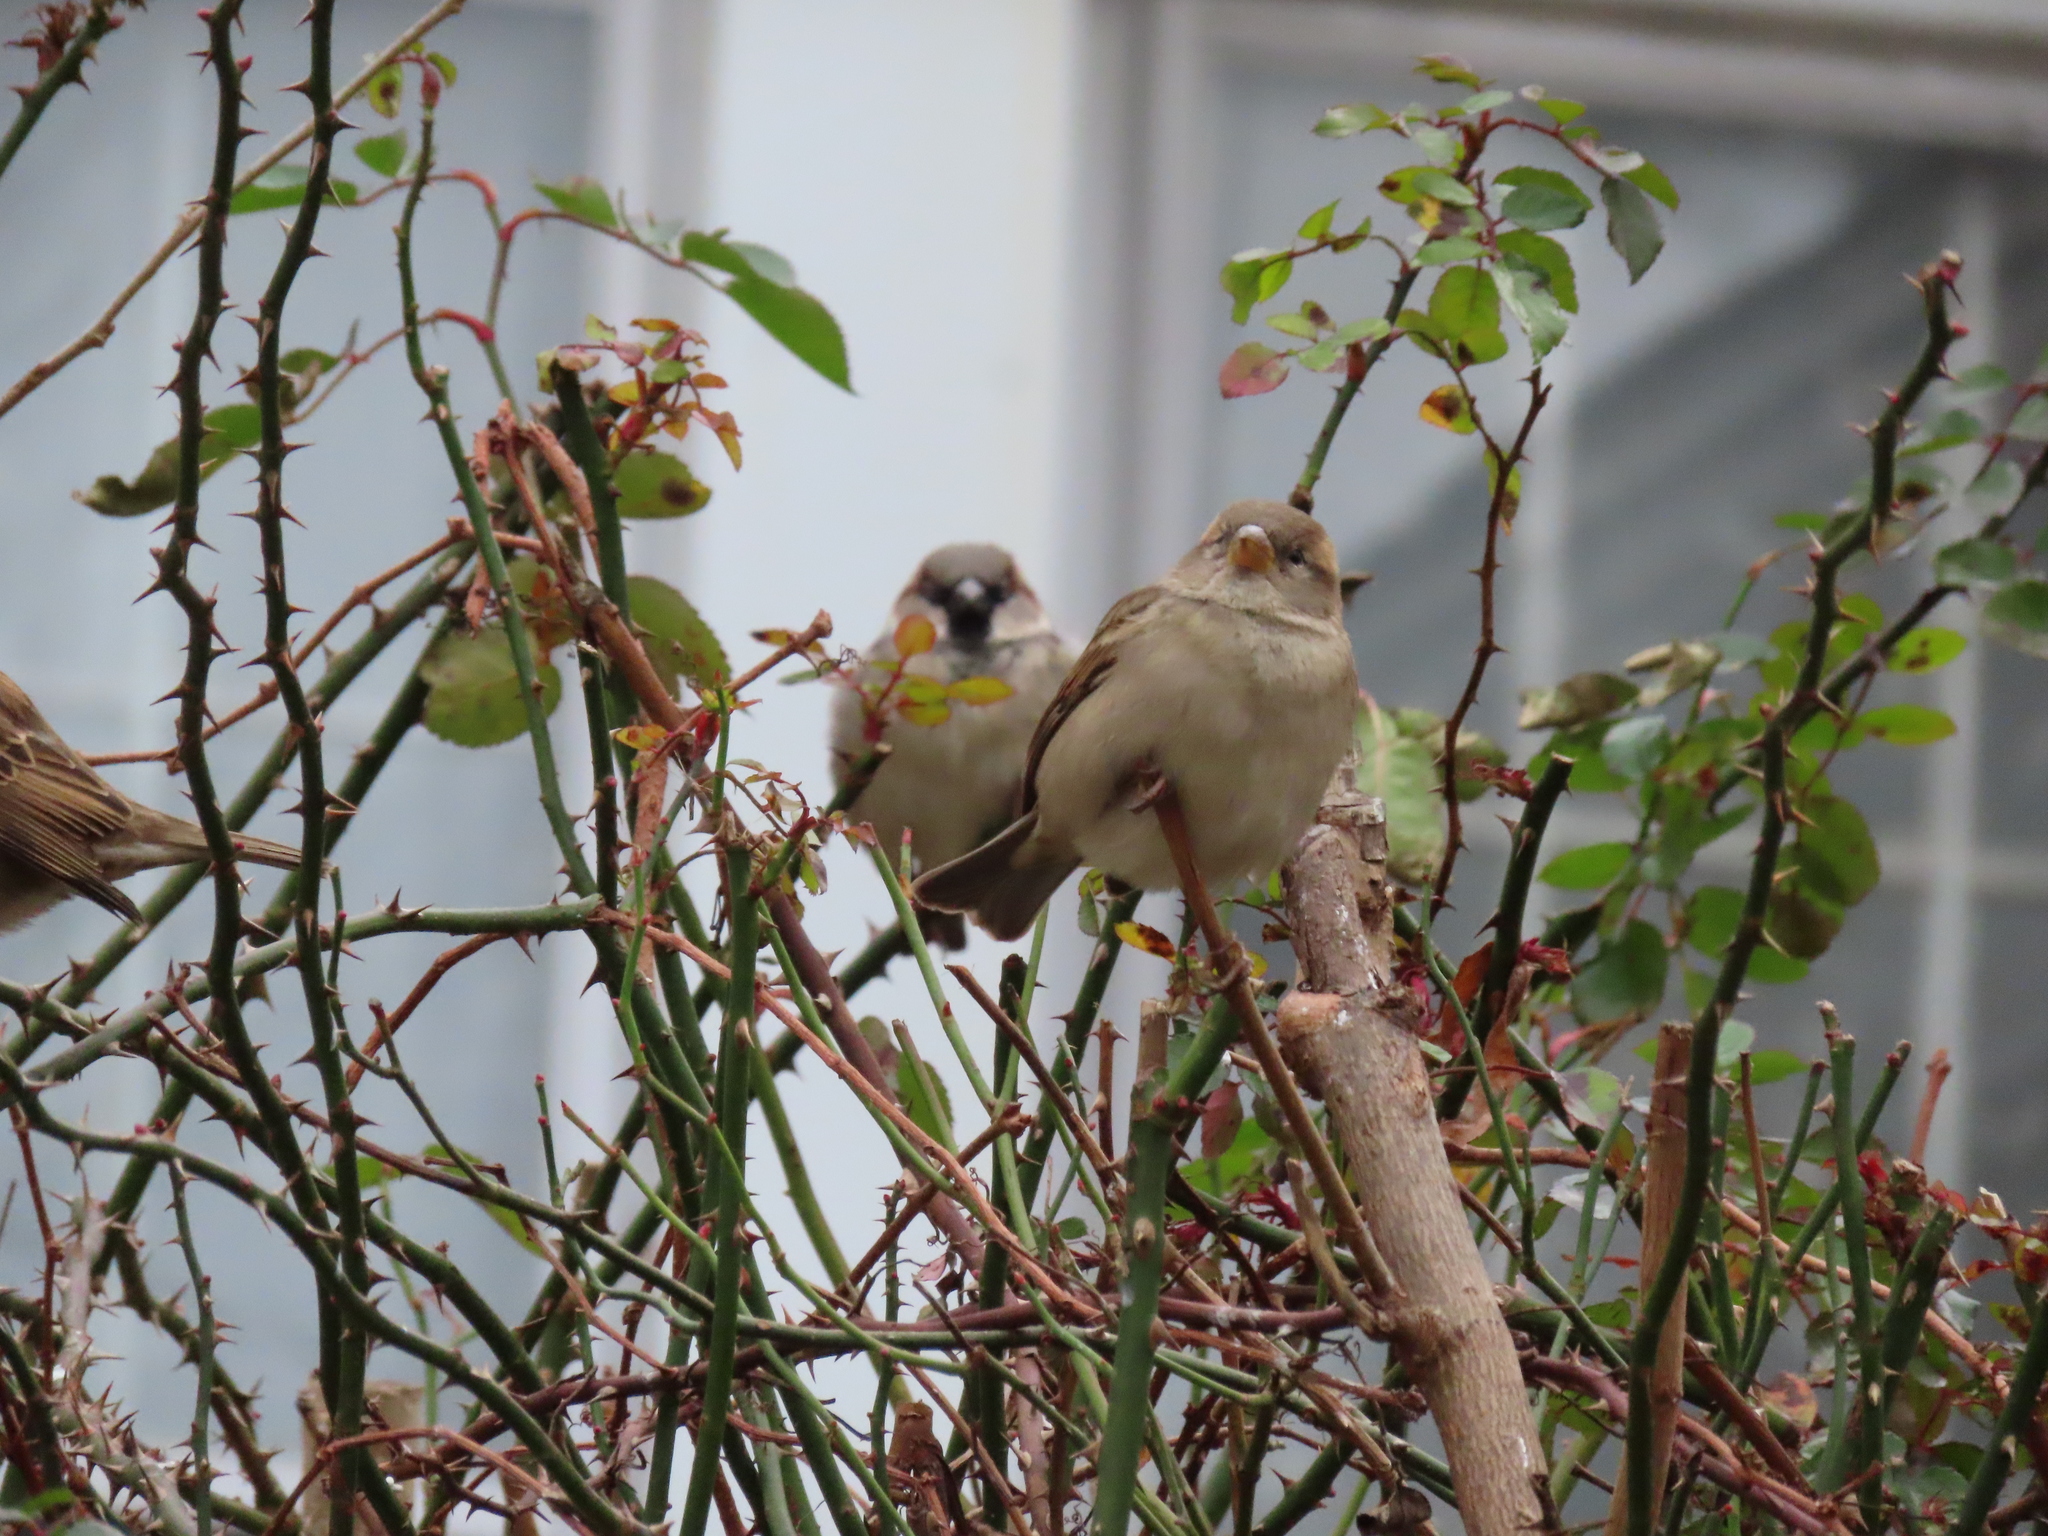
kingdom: Animalia
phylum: Chordata
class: Aves
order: Passeriformes
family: Passeridae
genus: Passer
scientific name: Passer domesticus
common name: House sparrow
